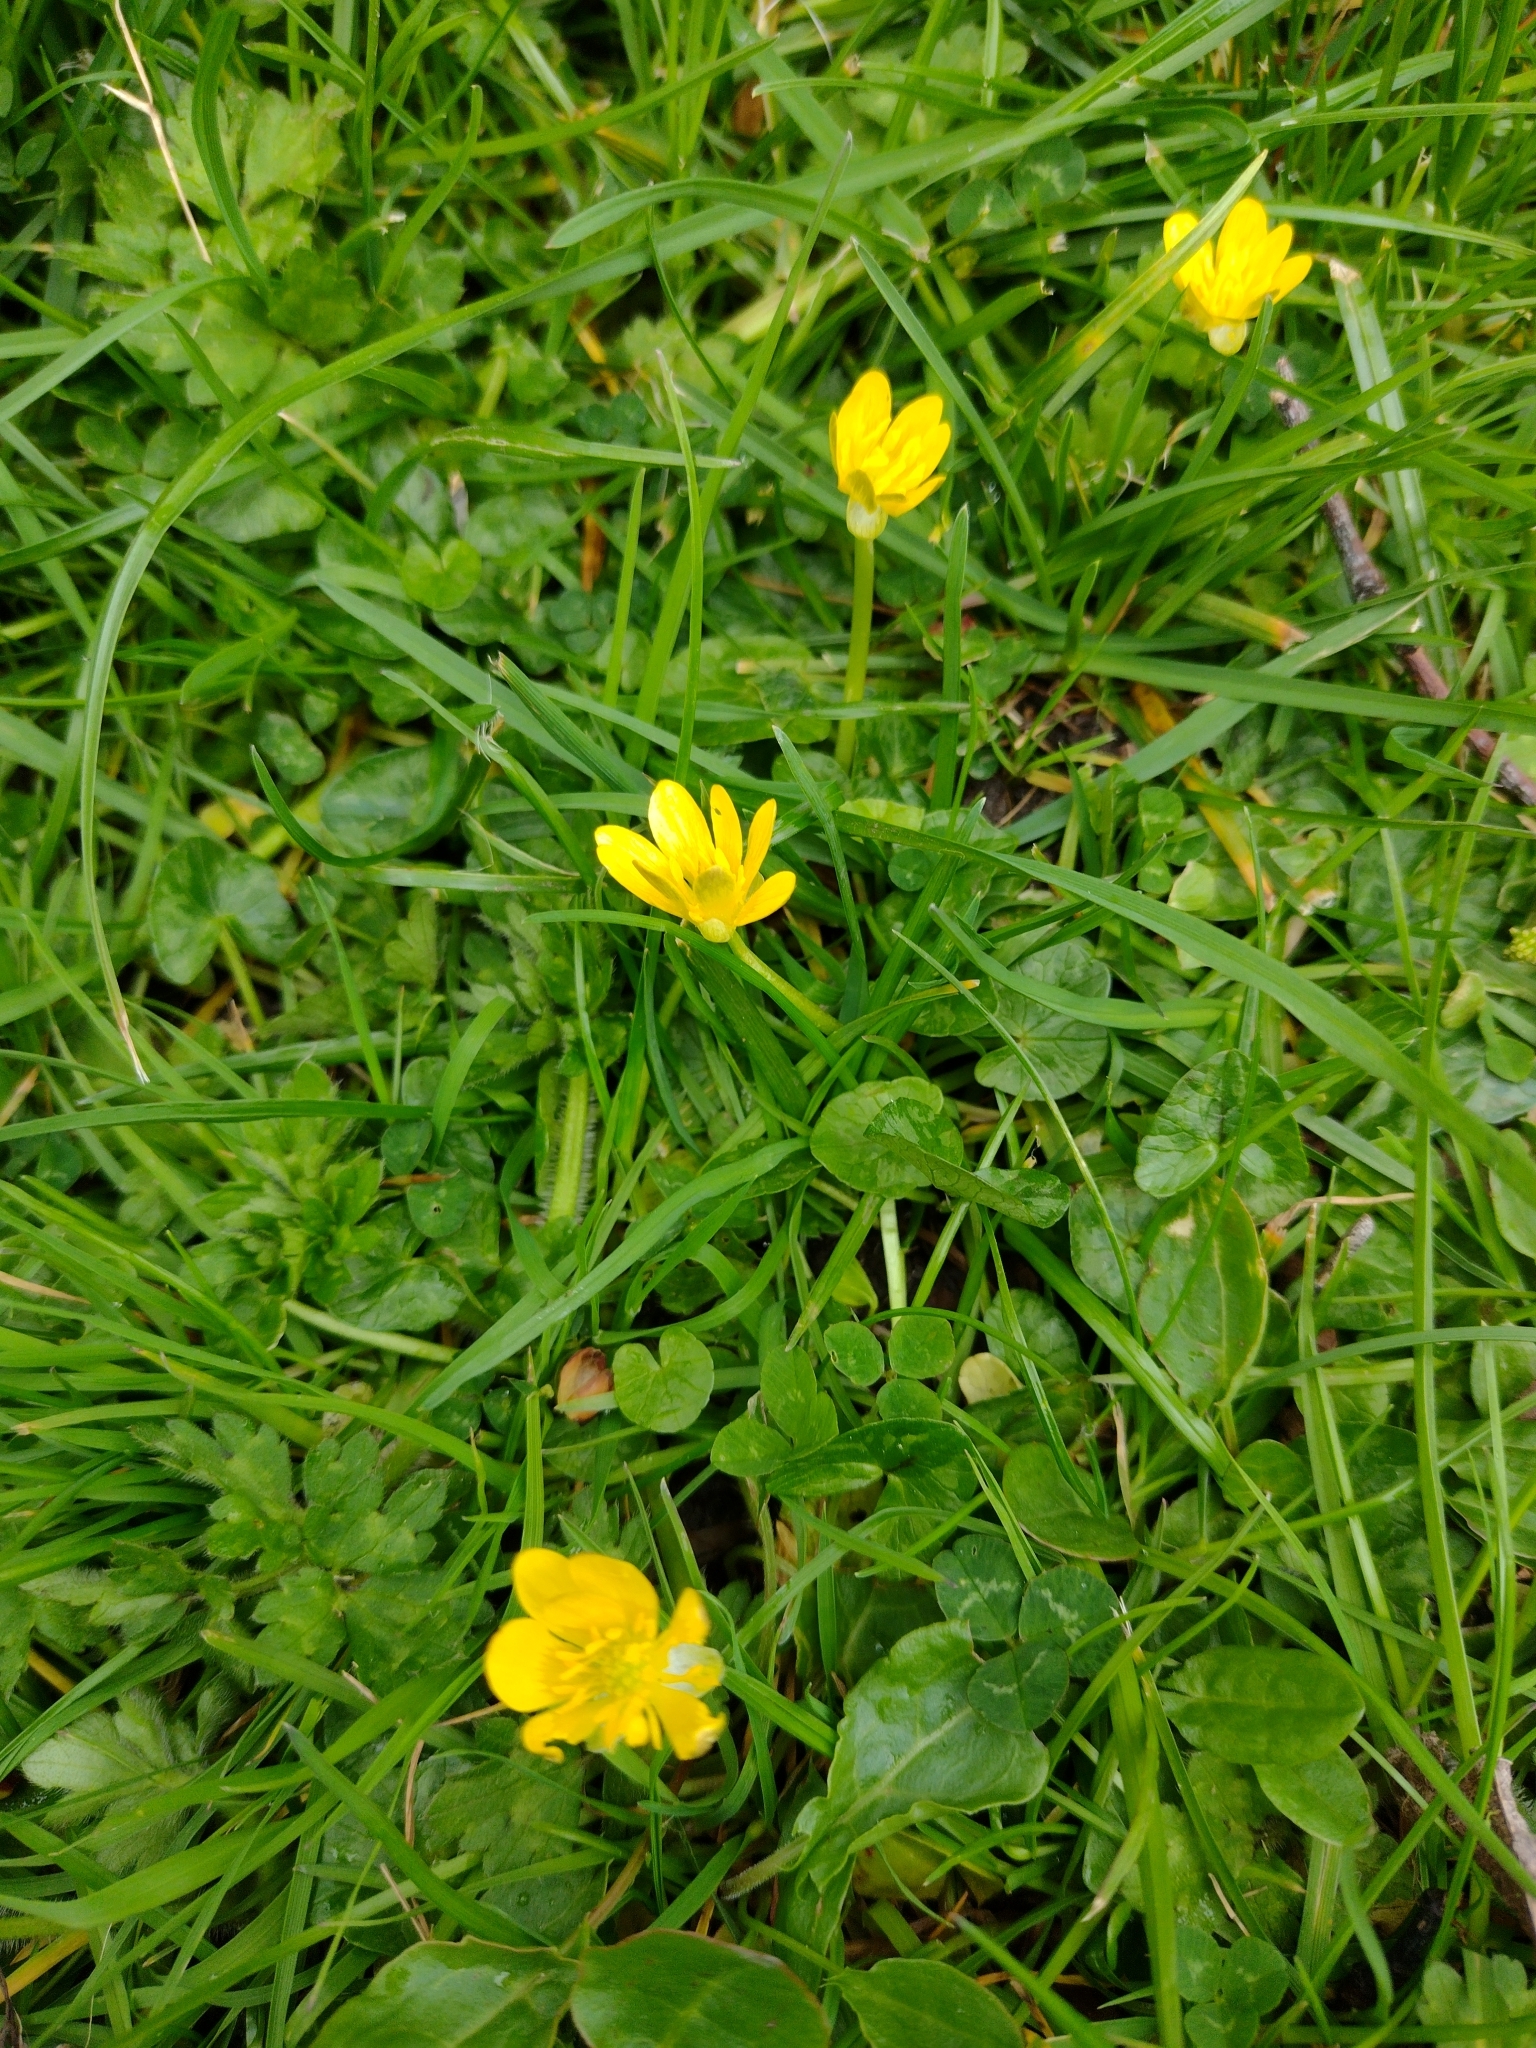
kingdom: Plantae
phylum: Tracheophyta
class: Magnoliopsida
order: Ranunculales
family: Ranunculaceae
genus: Ficaria
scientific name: Ficaria verna
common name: Lesser celandine
